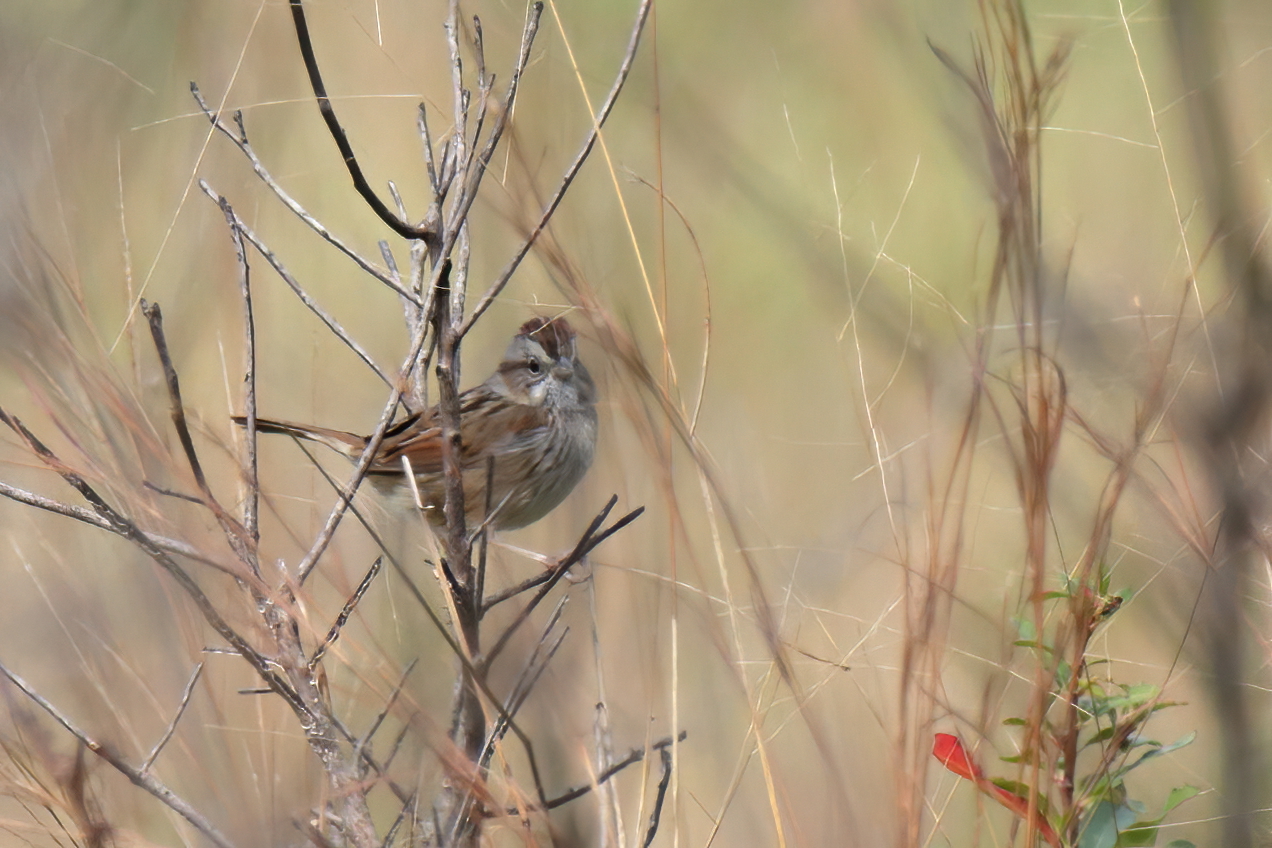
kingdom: Animalia
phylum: Chordata
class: Aves
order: Passeriformes
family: Passerellidae
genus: Melospiza
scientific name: Melospiza georgiana
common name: Swamp sparrow
